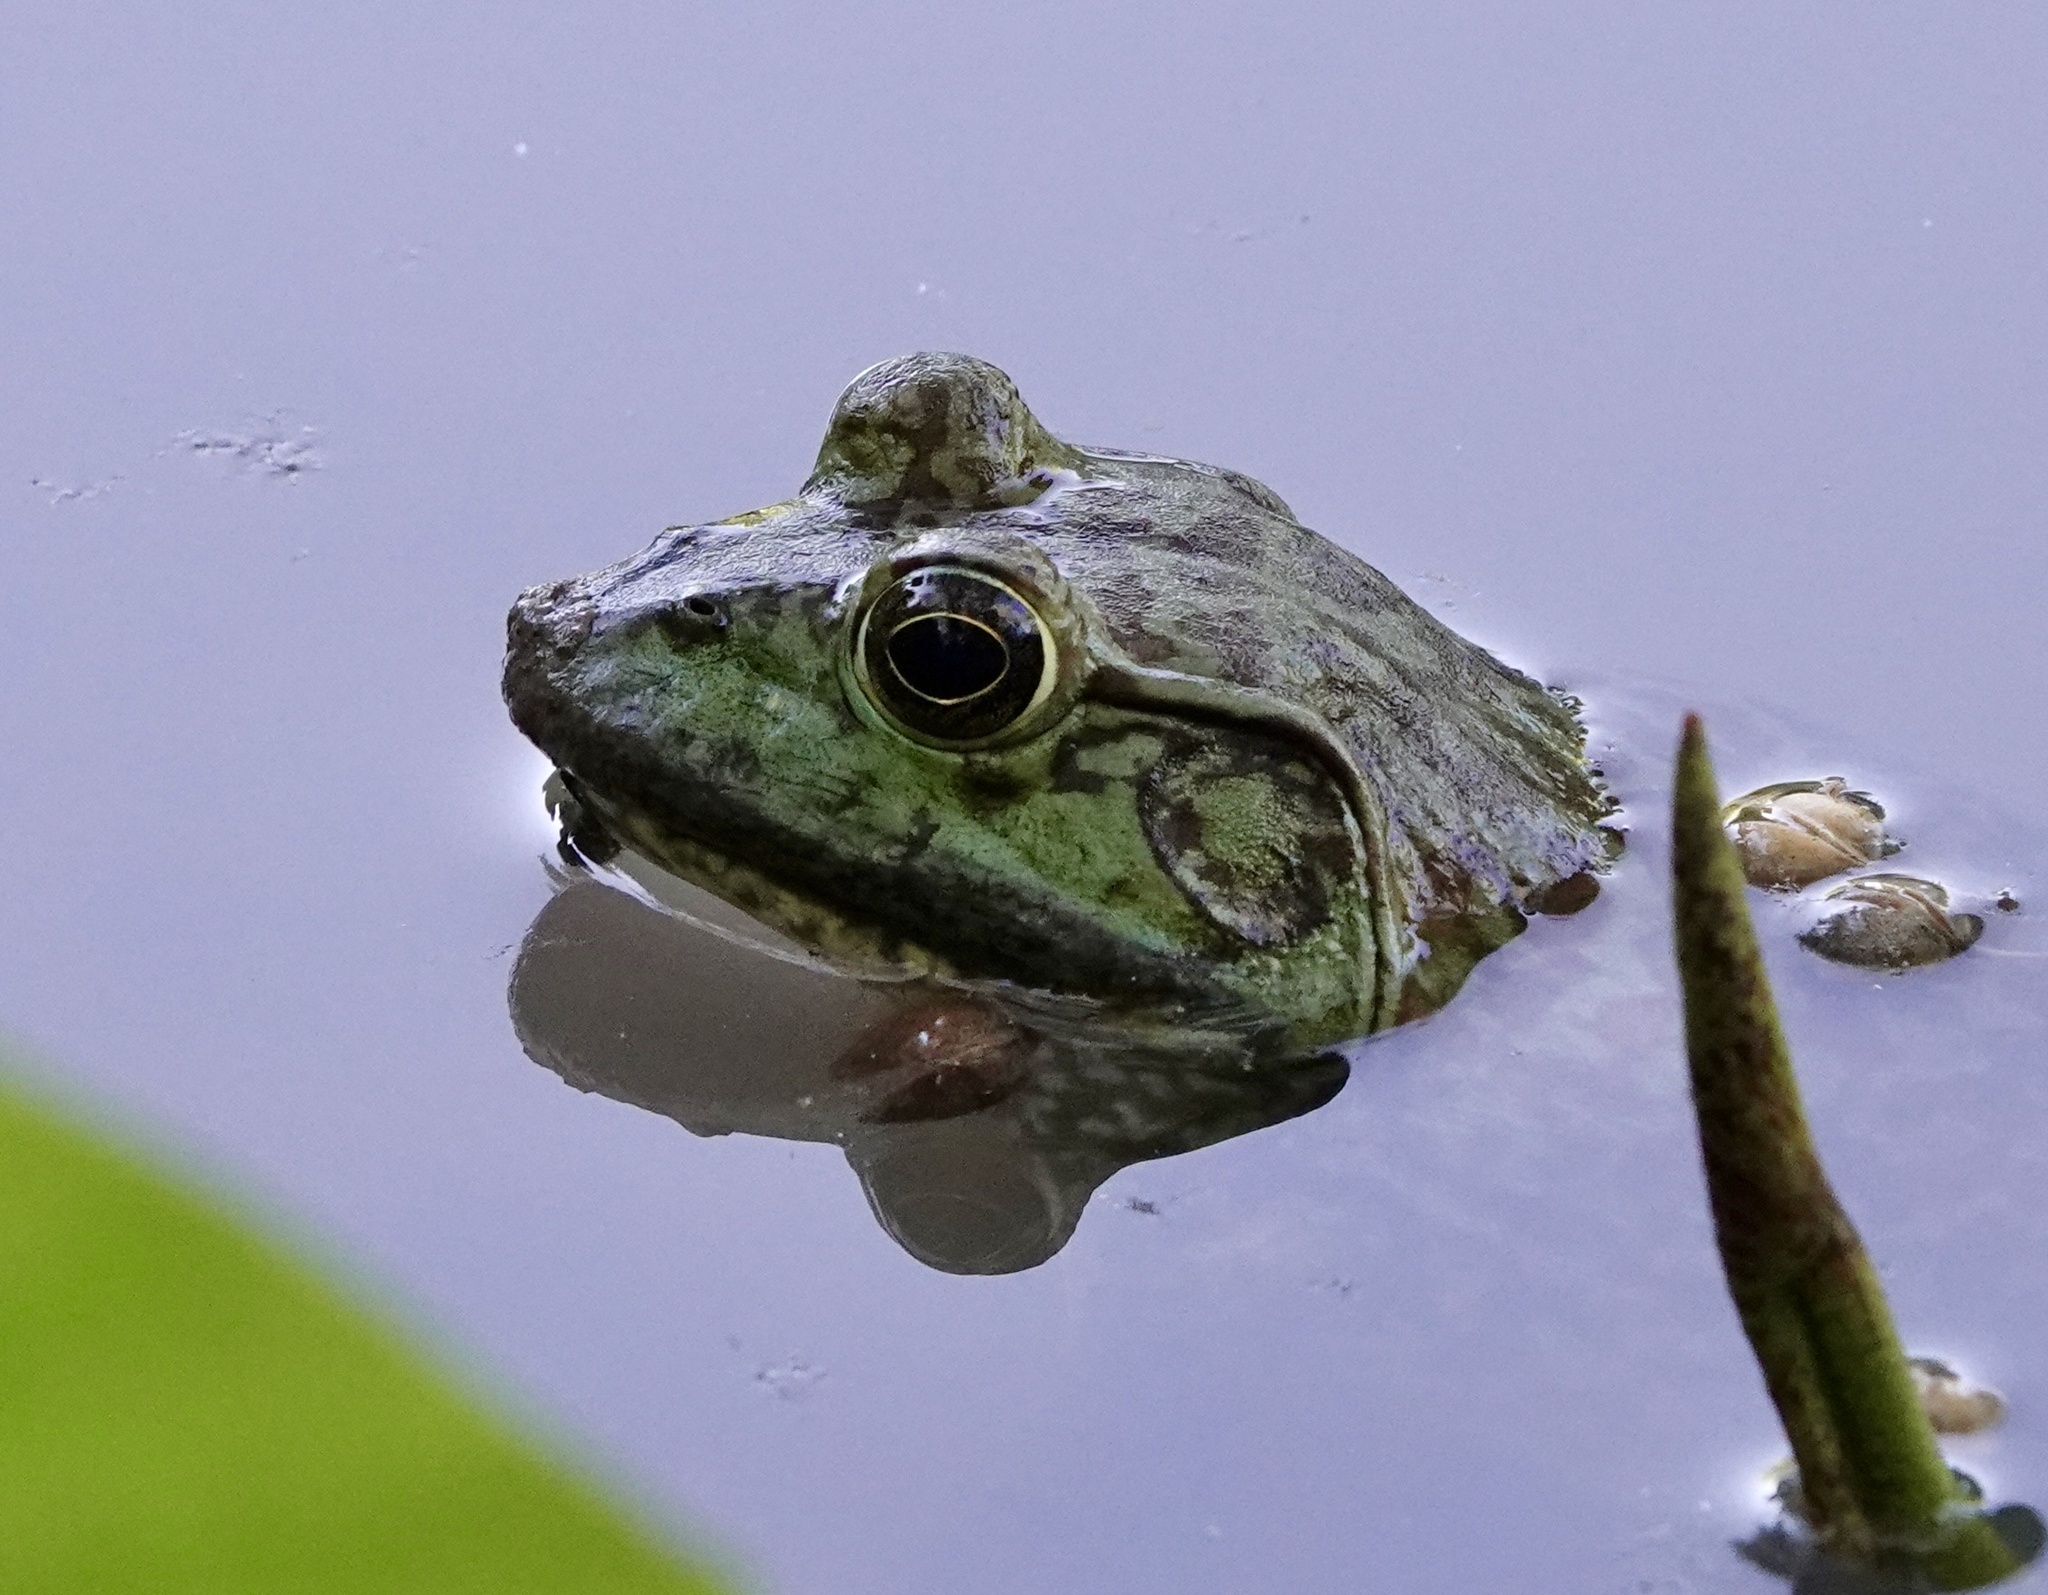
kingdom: Animalia
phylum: Chordata
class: Amphibia
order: Anura
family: Ranidae
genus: Lithobates
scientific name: Lithobates catesbeianus
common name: American bullfrog
